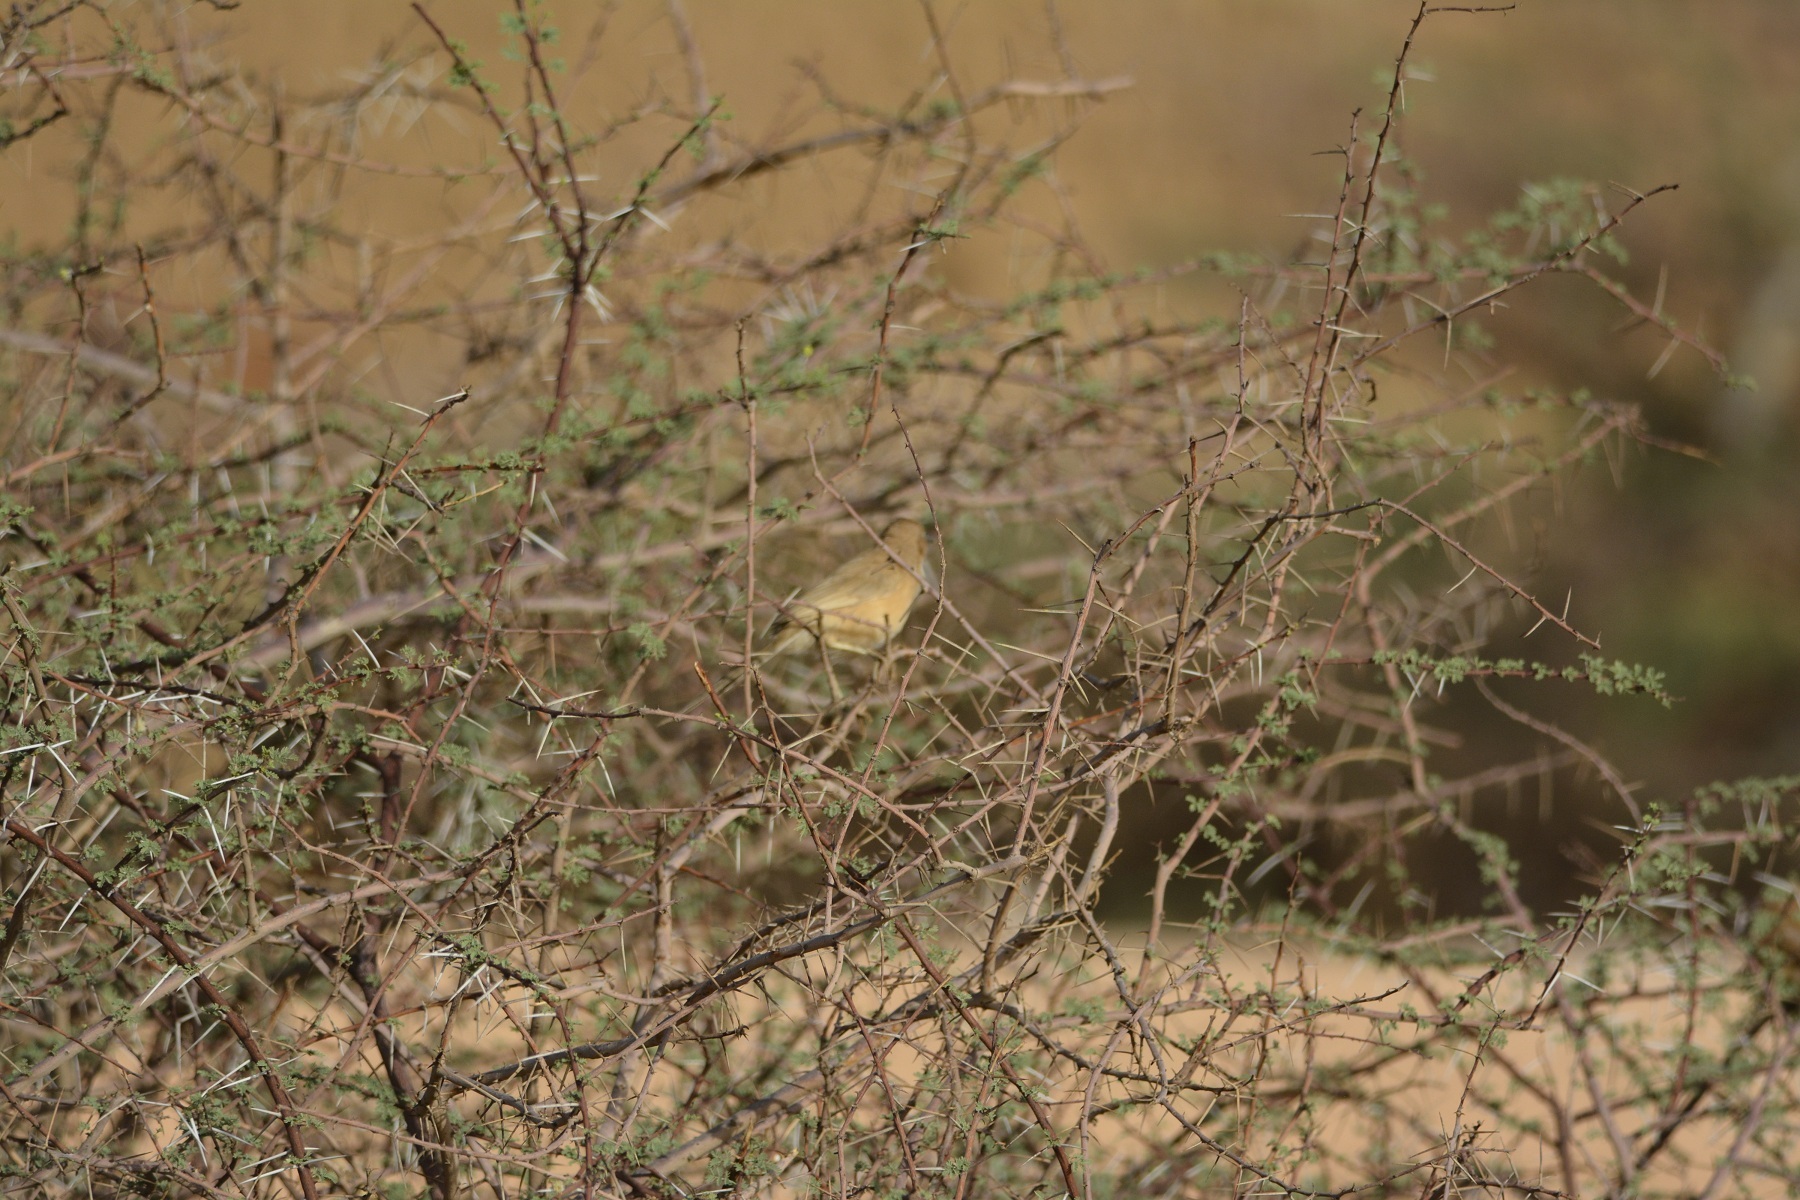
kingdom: Animalia
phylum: Chordata
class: Aves
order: Passeriformes
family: Leiothrichidae
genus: Turdoides
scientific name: Turdoides fulva
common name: Fulvous babbler
